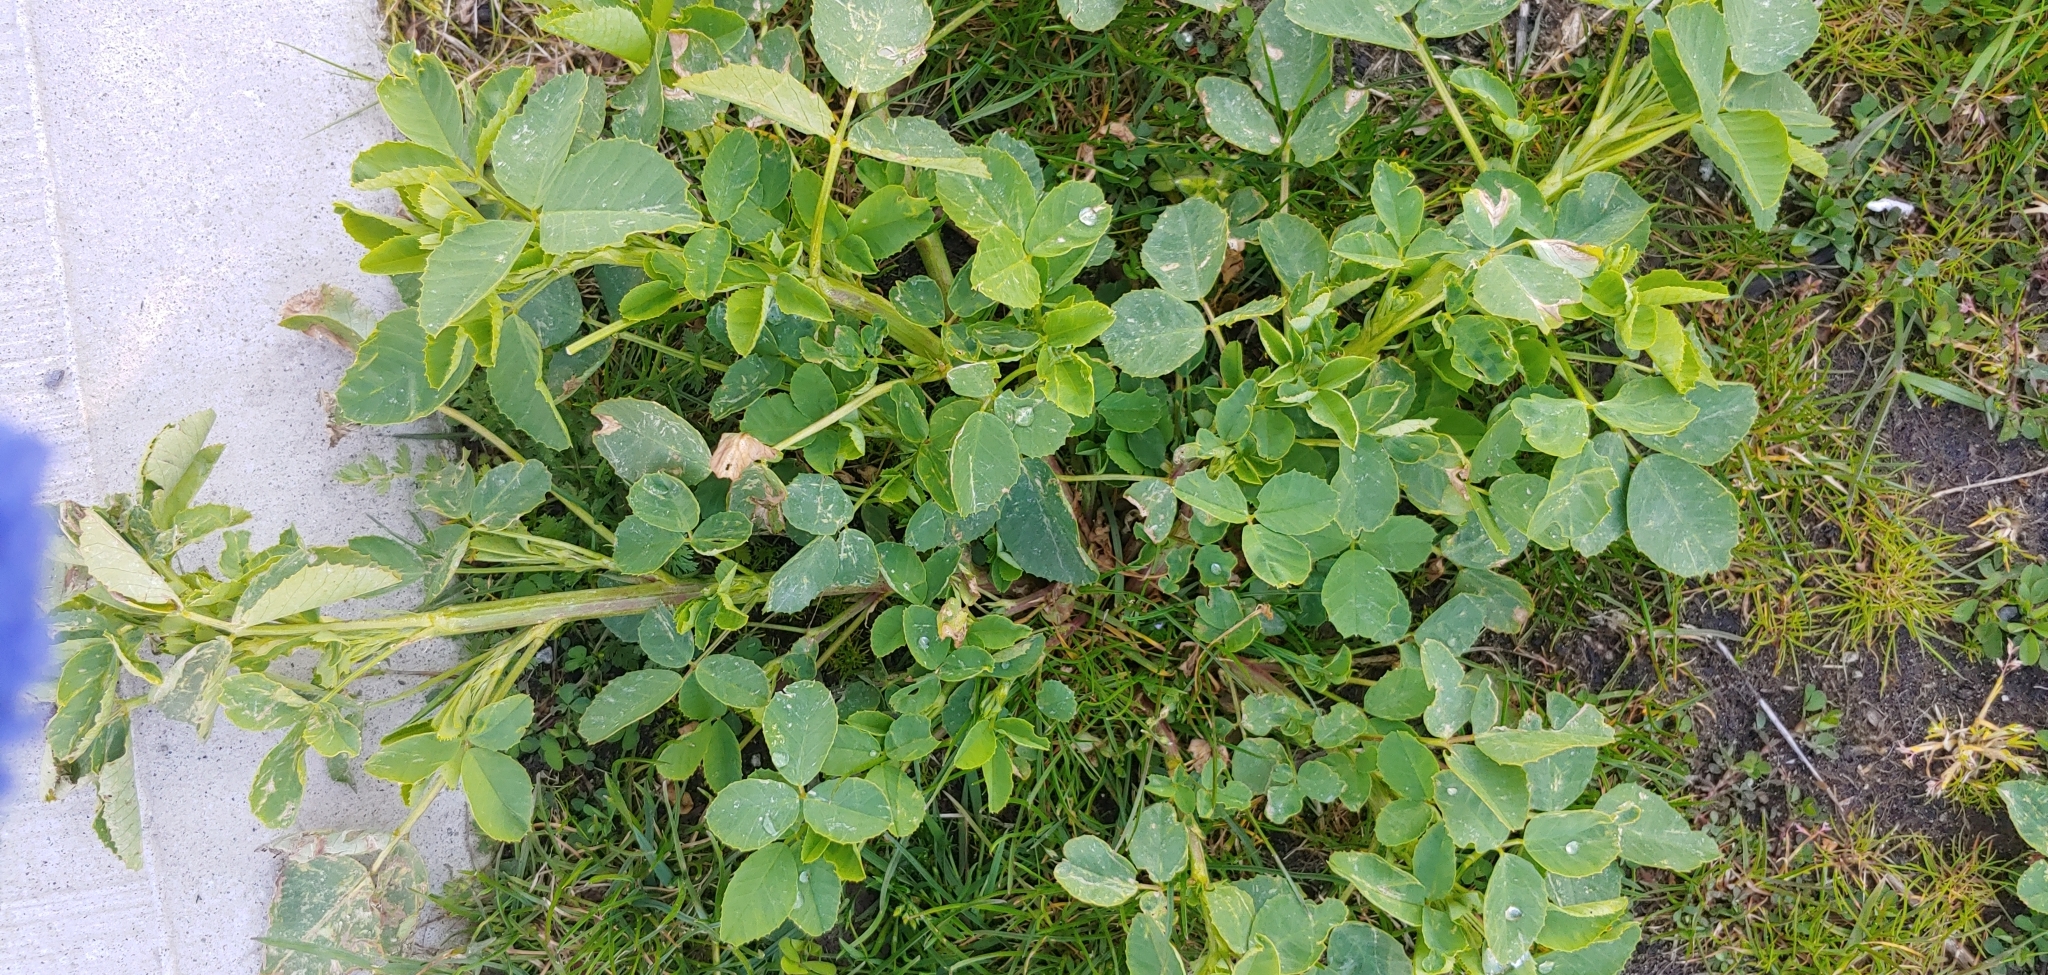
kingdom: Plantae
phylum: Tracheophyta
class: Magnoliopsida
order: Fabales
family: Fabaceae
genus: Melilotus
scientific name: Melilotus albus
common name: White melilot
